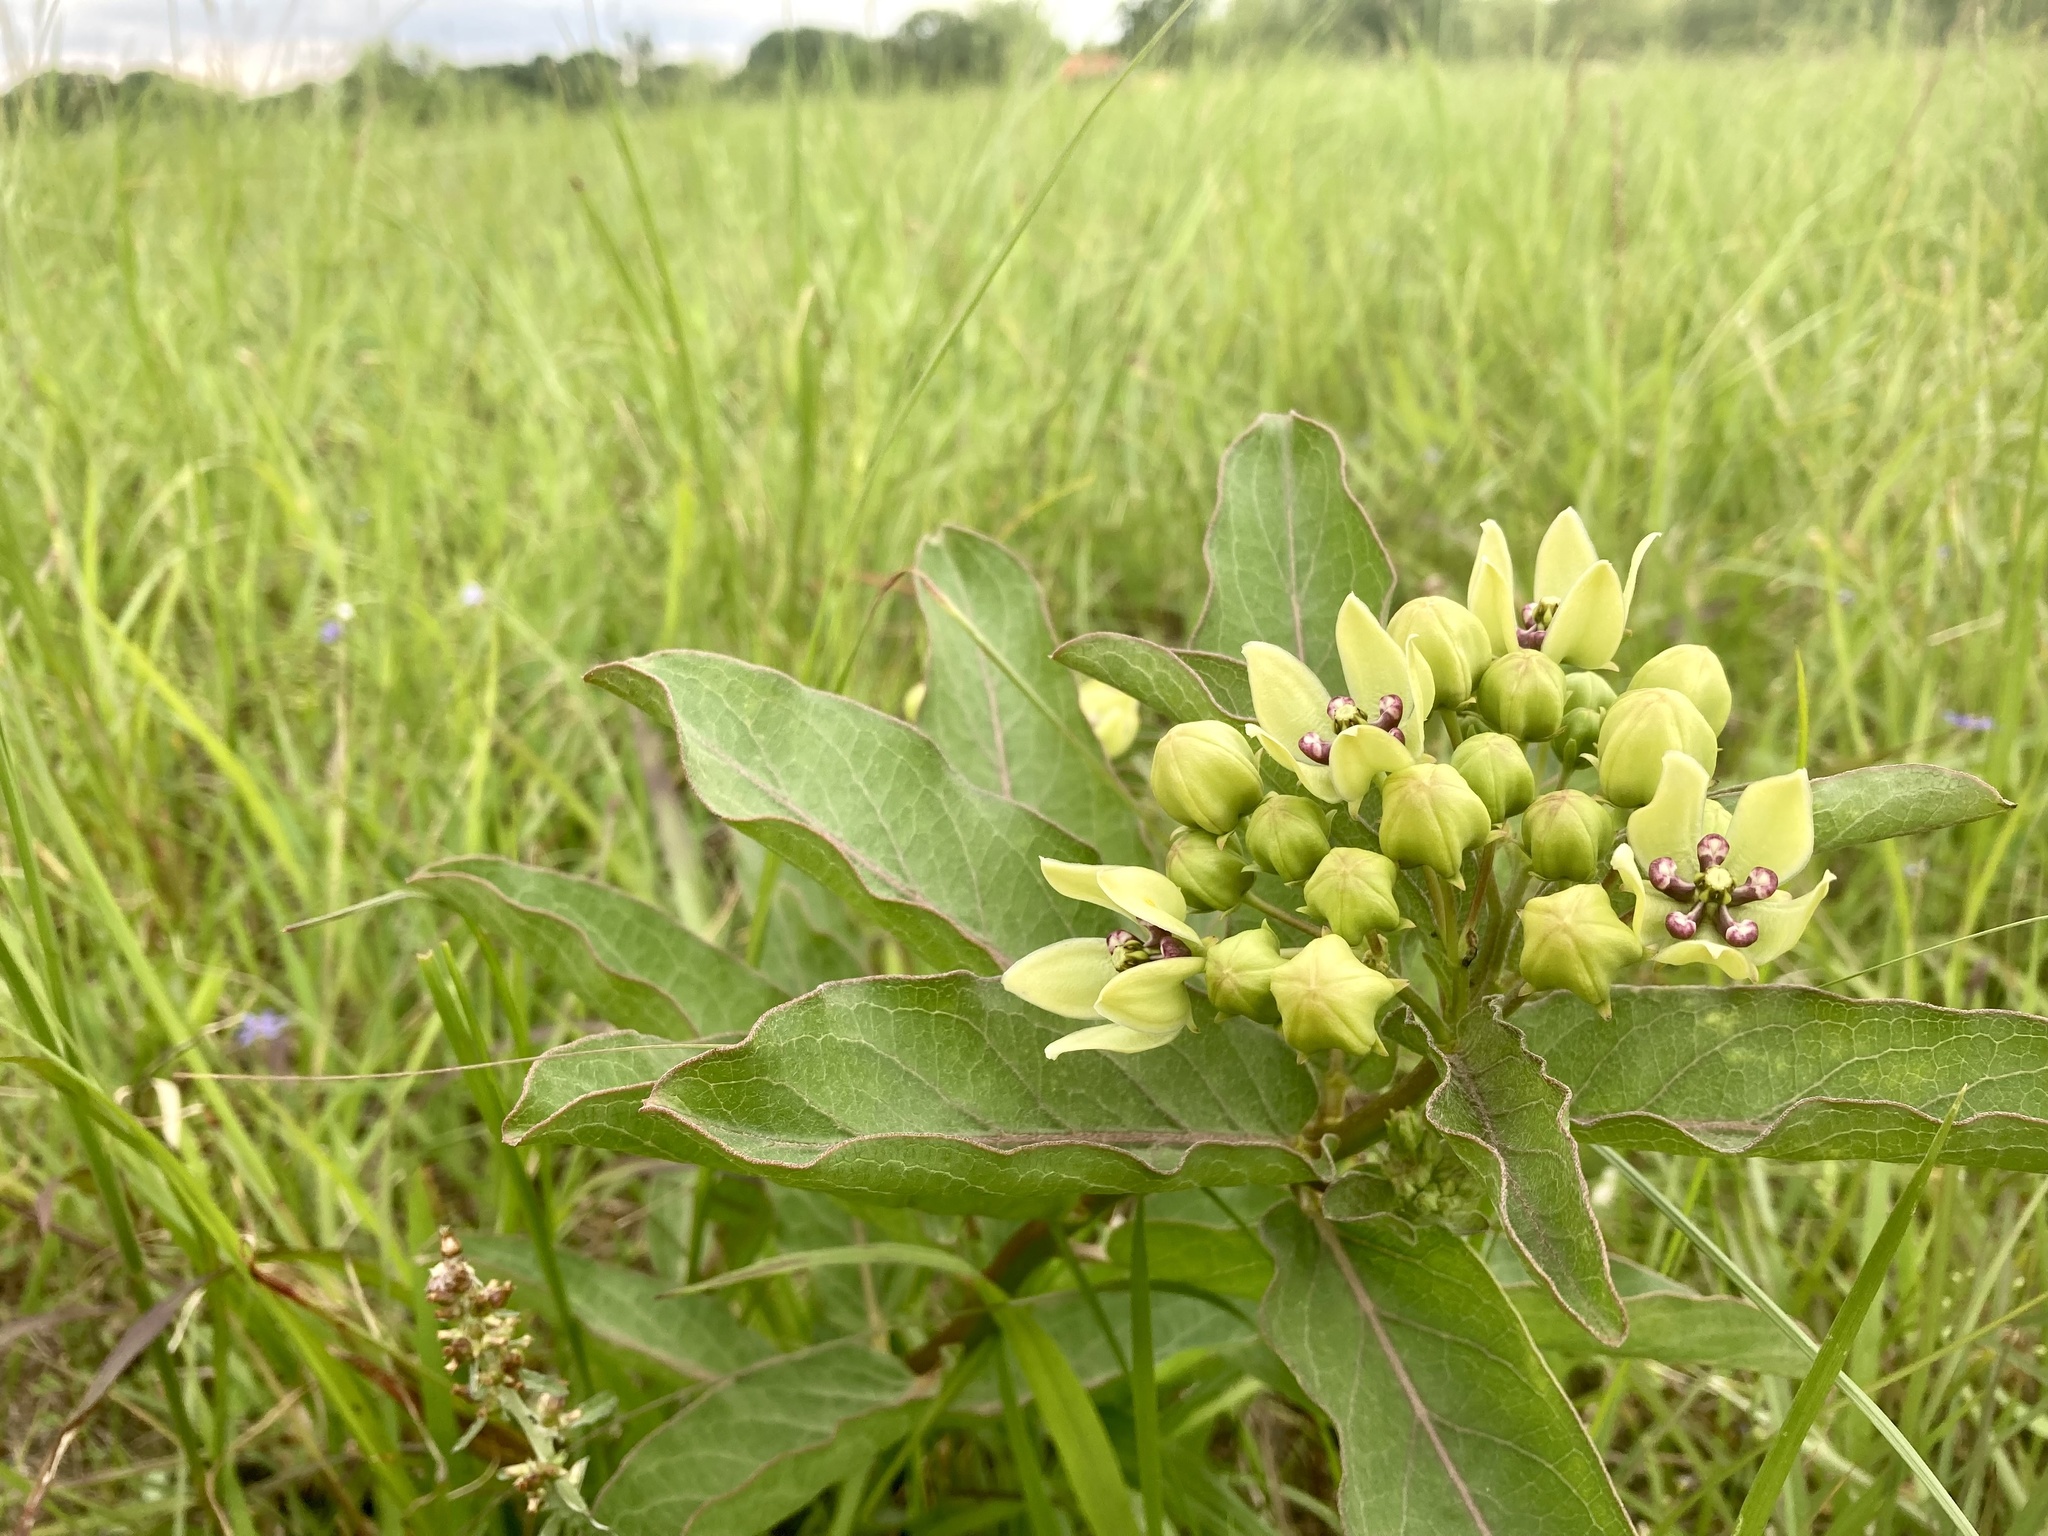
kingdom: Plantae
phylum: Tracheophyta
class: Magnoliopsida
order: Gentianales
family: Apocynaceae
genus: Asclepias
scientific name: Asclepias viridis
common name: Antelope-horns
